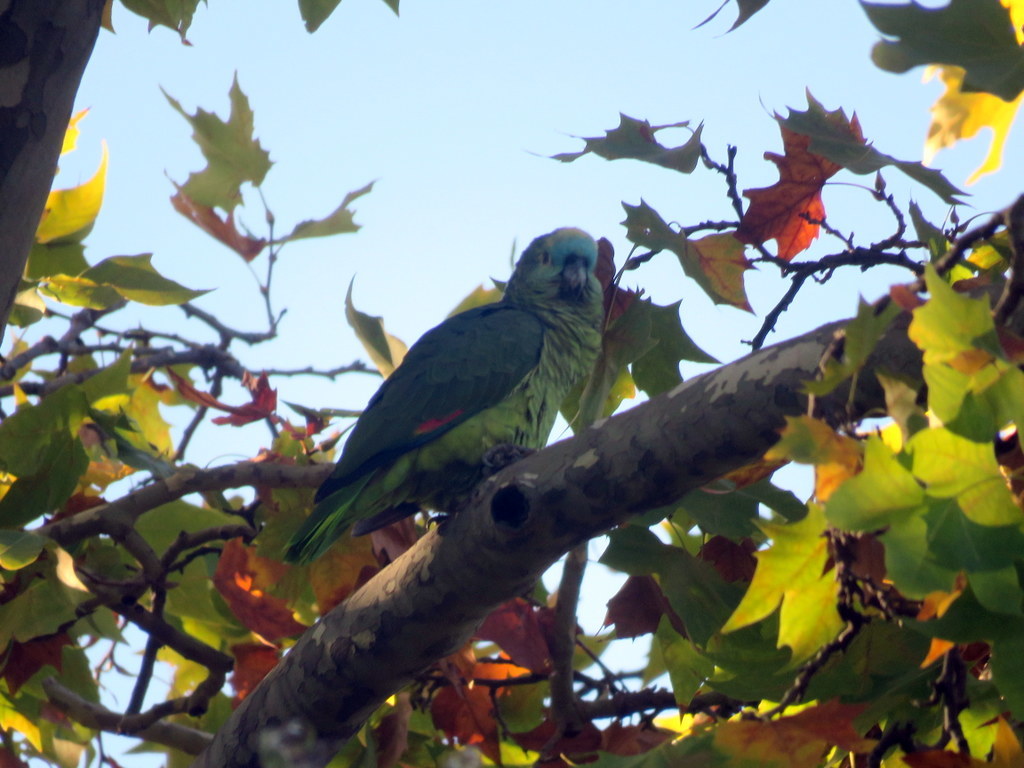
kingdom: Animalia
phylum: Chordata
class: Aves
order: Psittaciformes
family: Psittacidae
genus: Amazona
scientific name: Amazona aestiva
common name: Turquoise-fronted amazon
